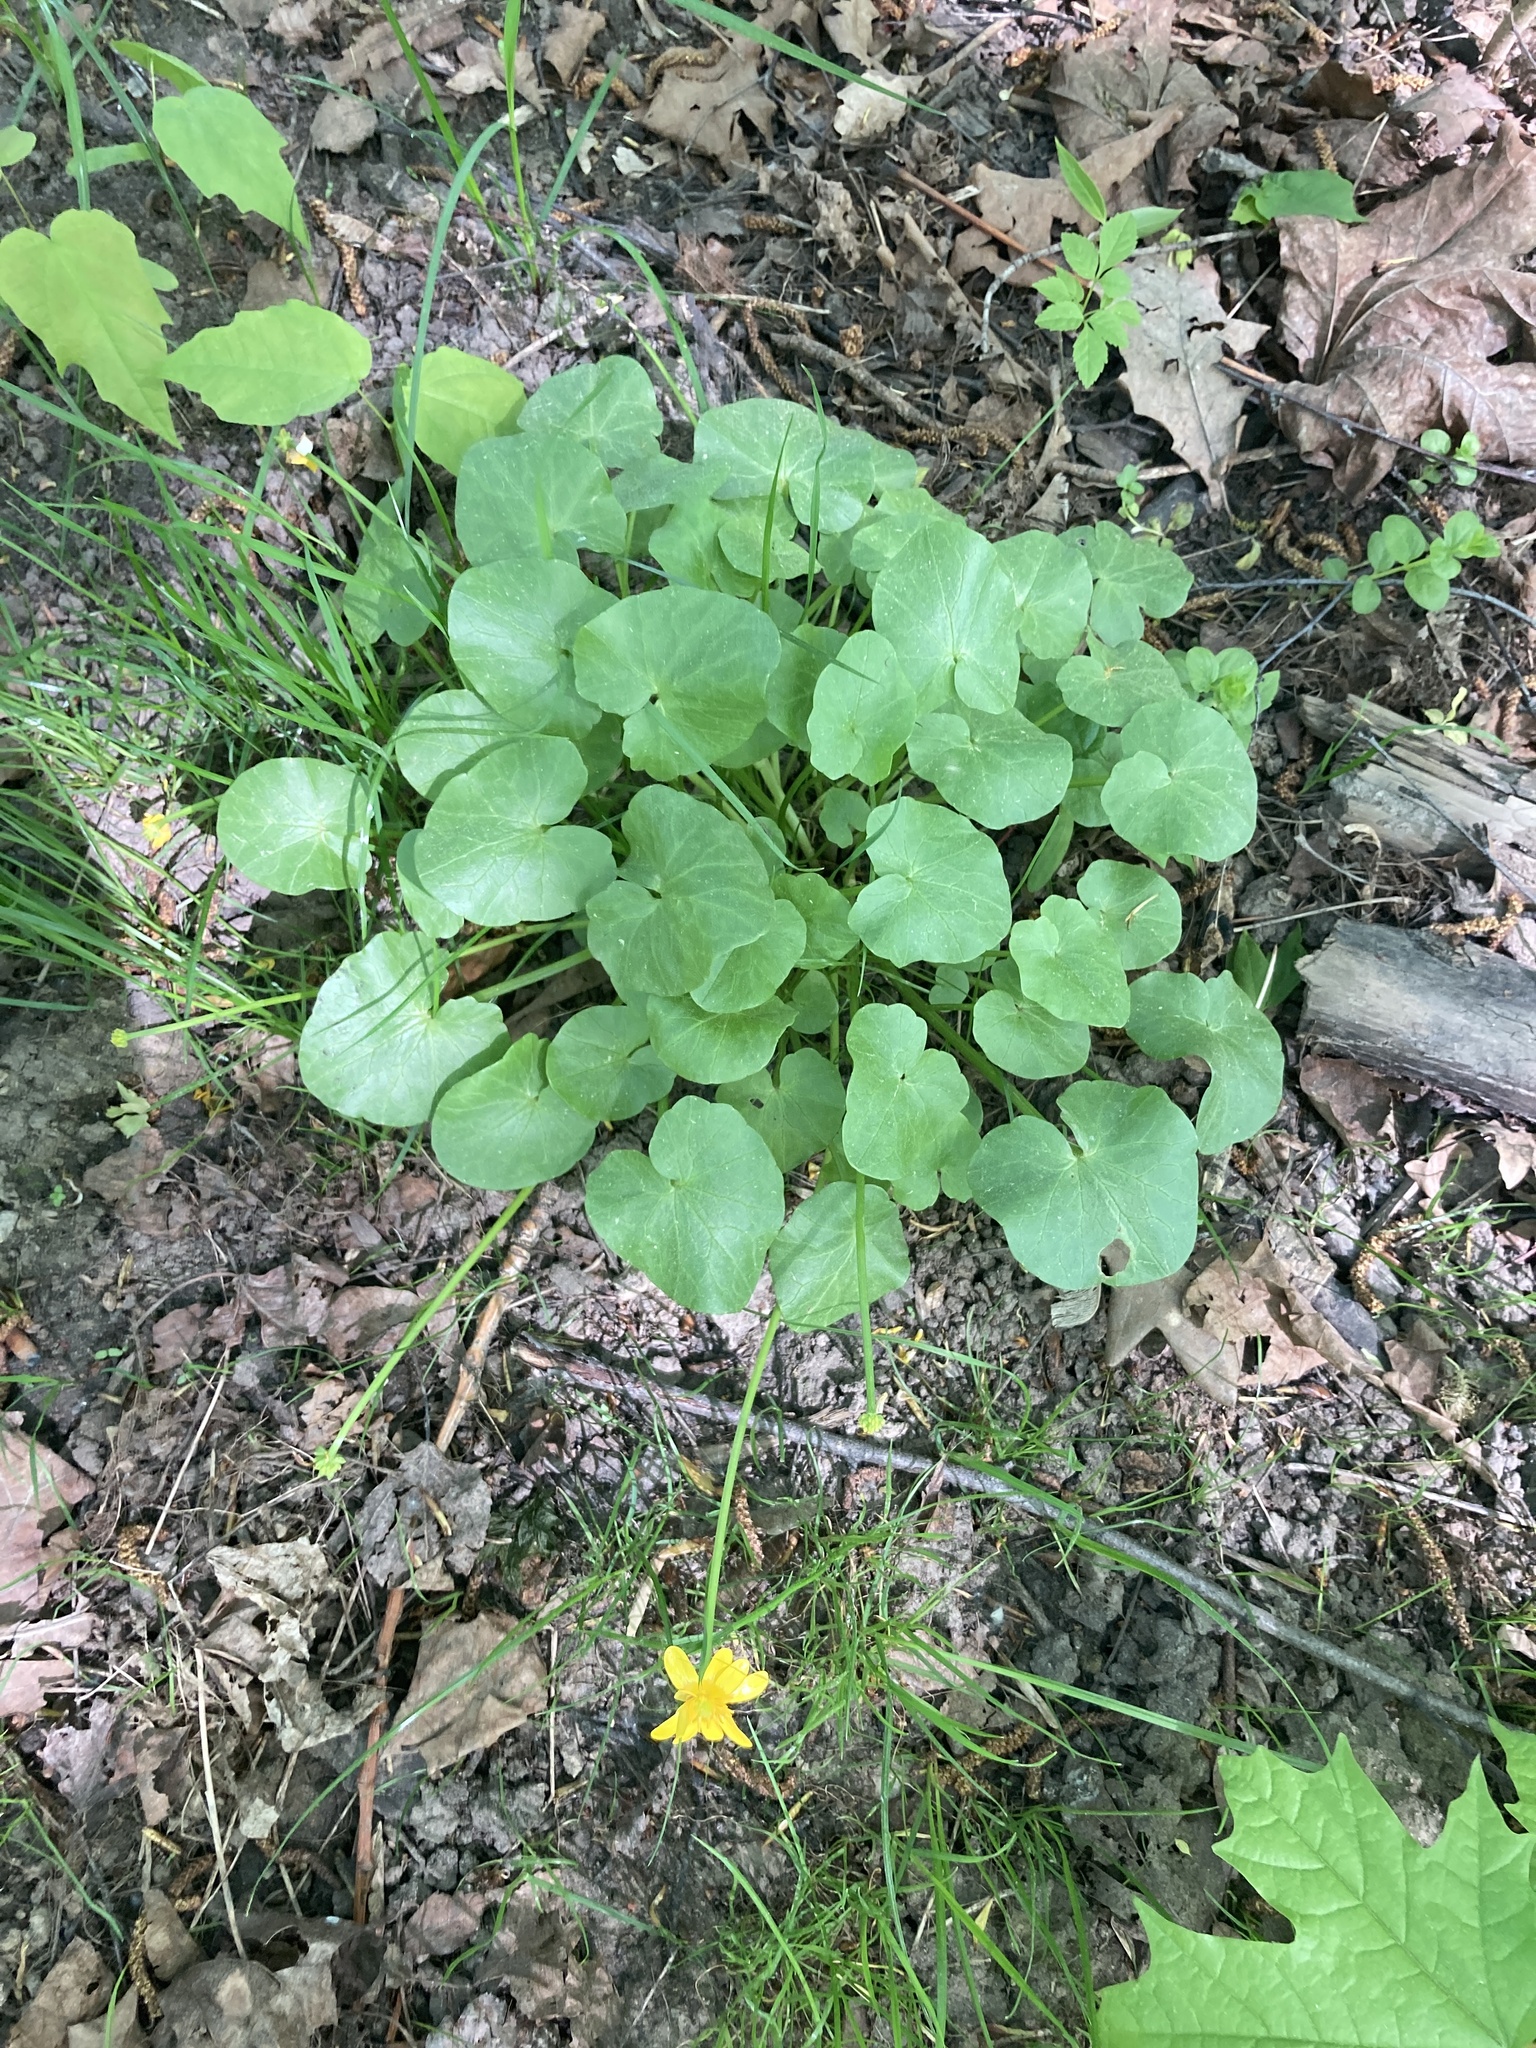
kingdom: Plantae
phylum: Tracheophyta
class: Magnoliopsida
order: Ranunculales
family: Ranunculaceae
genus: Ficaria
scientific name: Ficaria verna
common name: Lesser celandine
